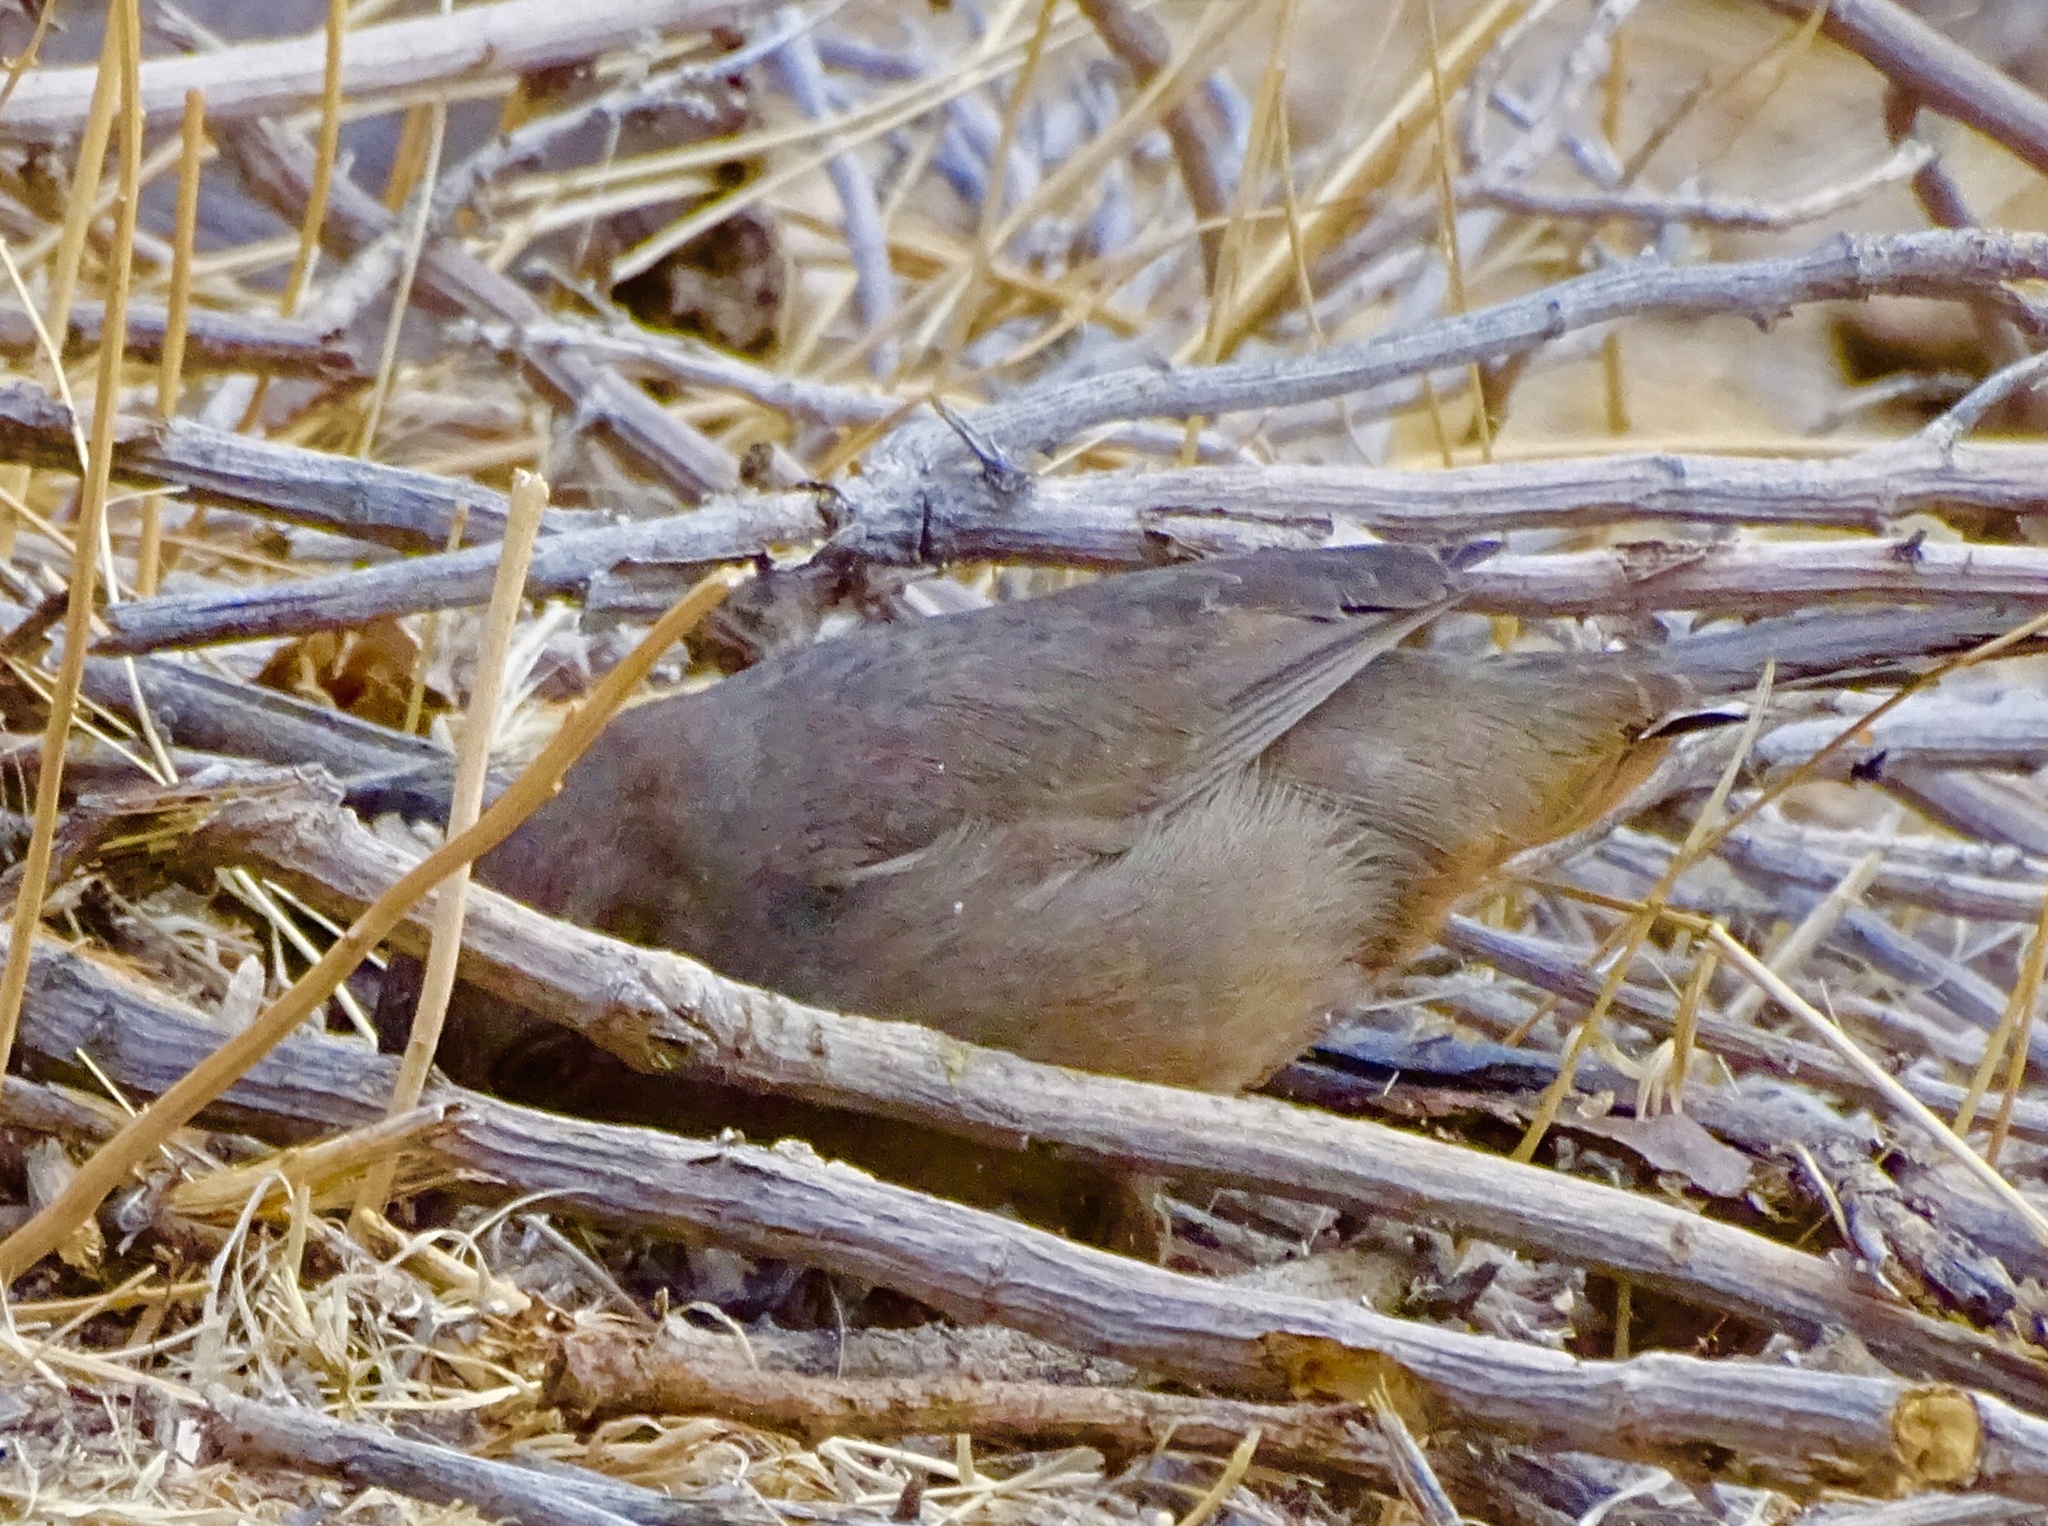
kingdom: Animalia
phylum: Chordata
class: Aves
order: Passeriformes
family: Passerellidae
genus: Melozone
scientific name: Melozone crissalis
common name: California towhee
